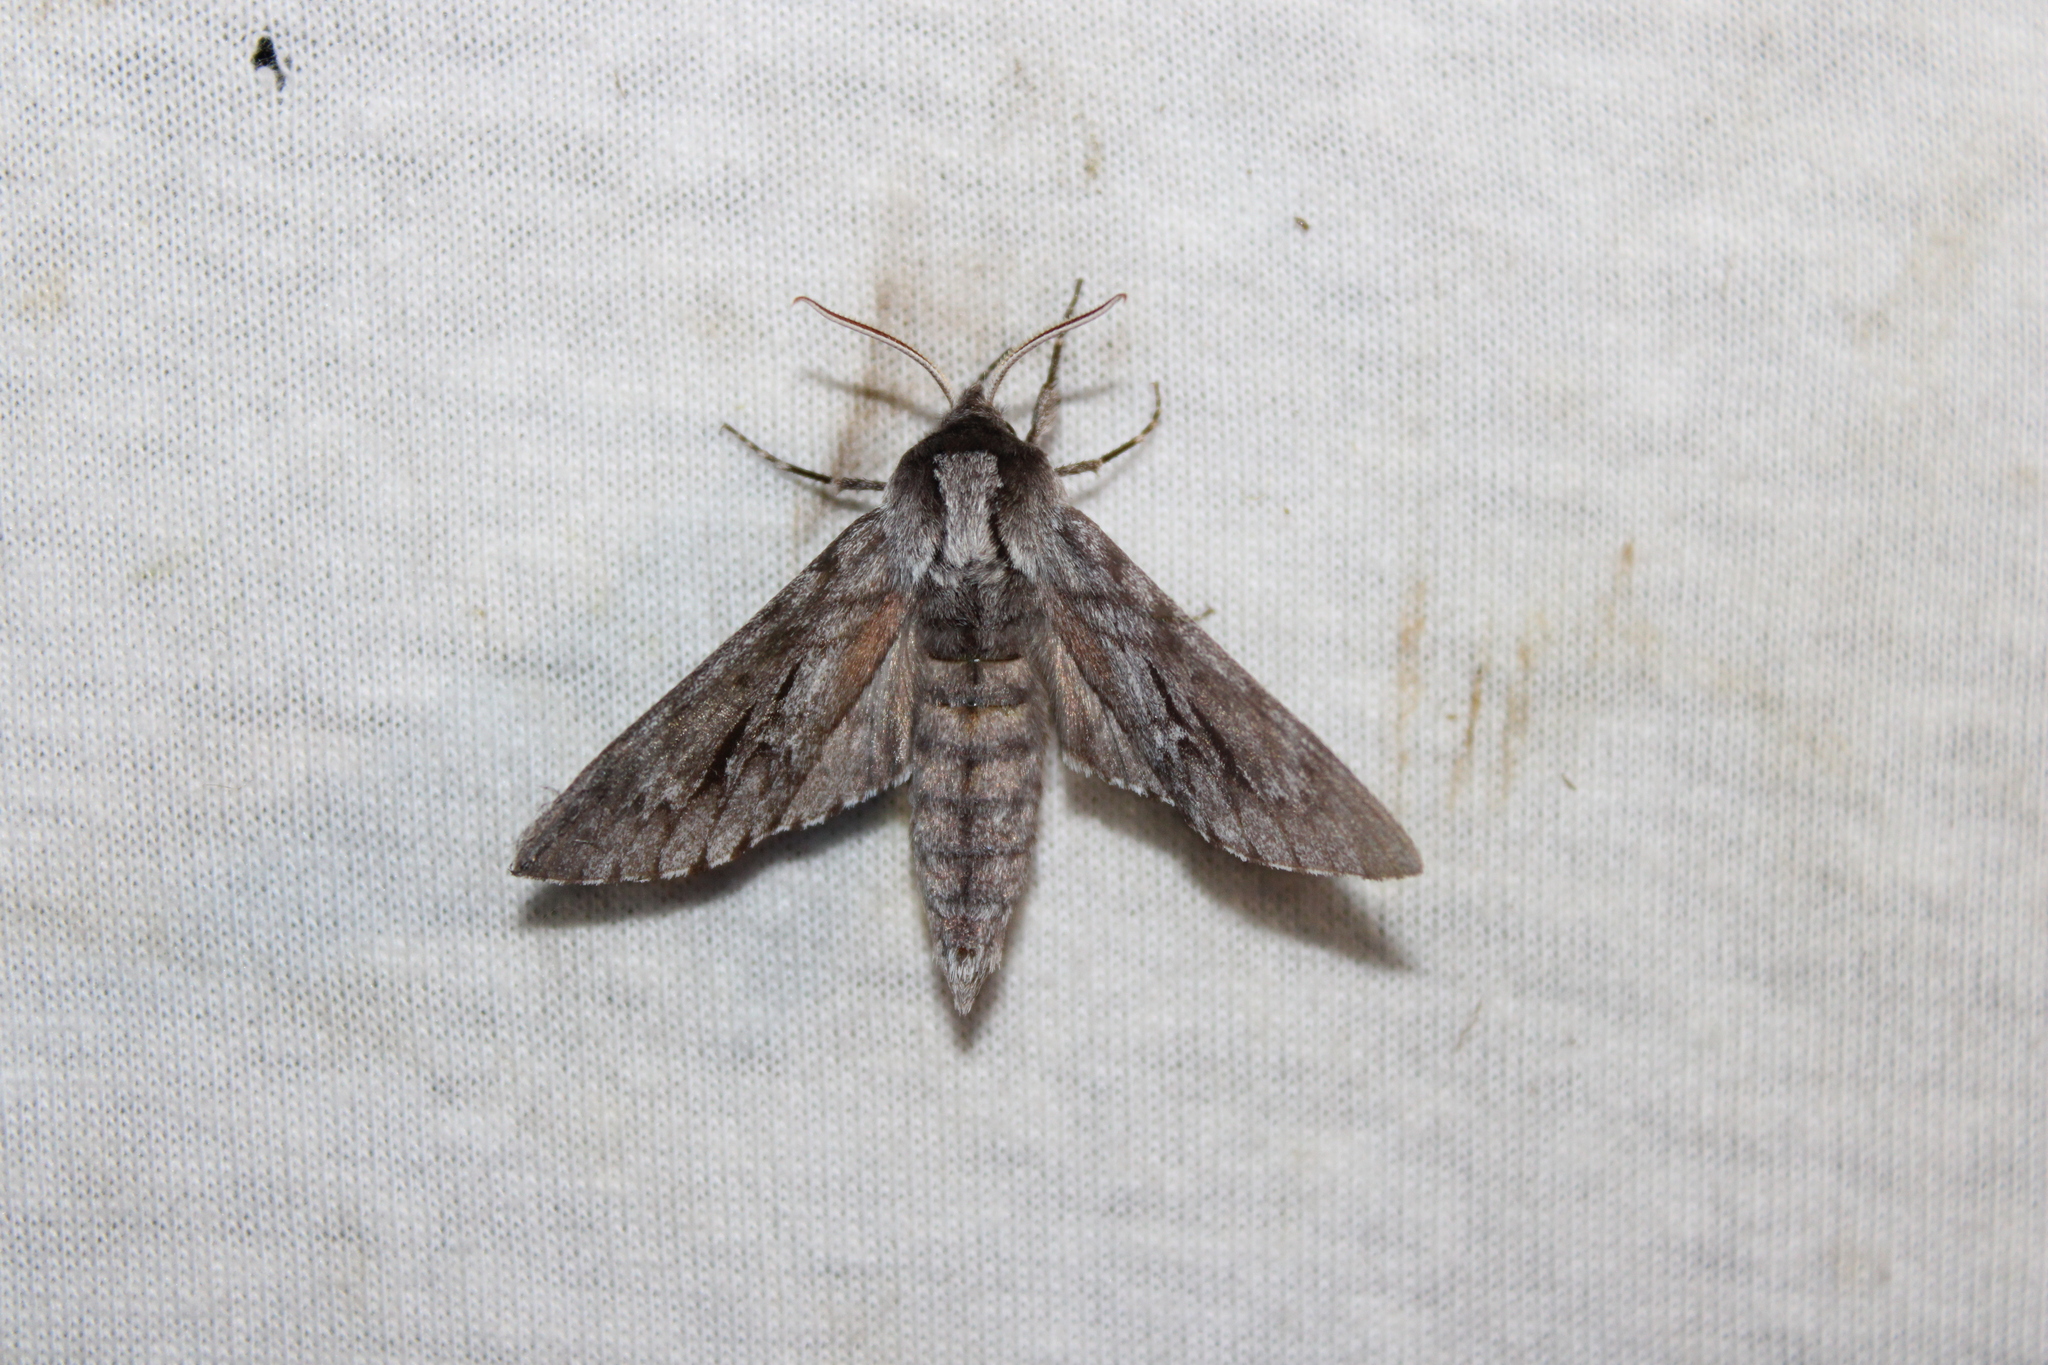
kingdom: Animalia
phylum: Arthropoda
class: Insecta
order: Lepidoptera
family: Sphingidae
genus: Lapara
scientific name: Lapara bombycoides
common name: Northern pine sphinx
